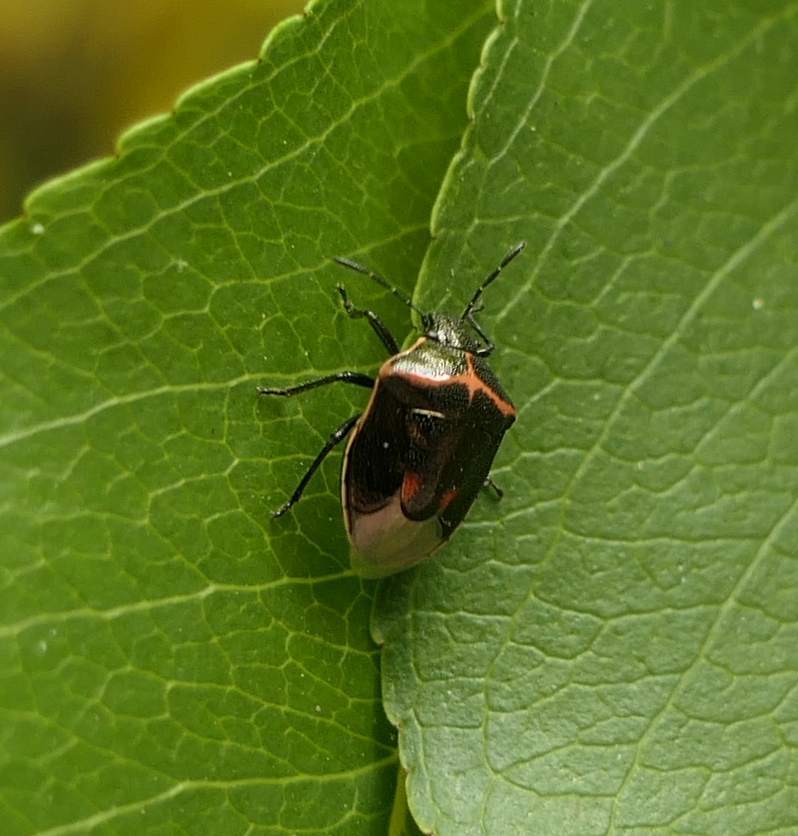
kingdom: Animalia
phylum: Arthropoda
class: Insecta
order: Hemiptera
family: Pentatomidae
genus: Cosmopepla
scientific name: Cosmopepla lintneriana
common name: Twice-stabbed stink bug
